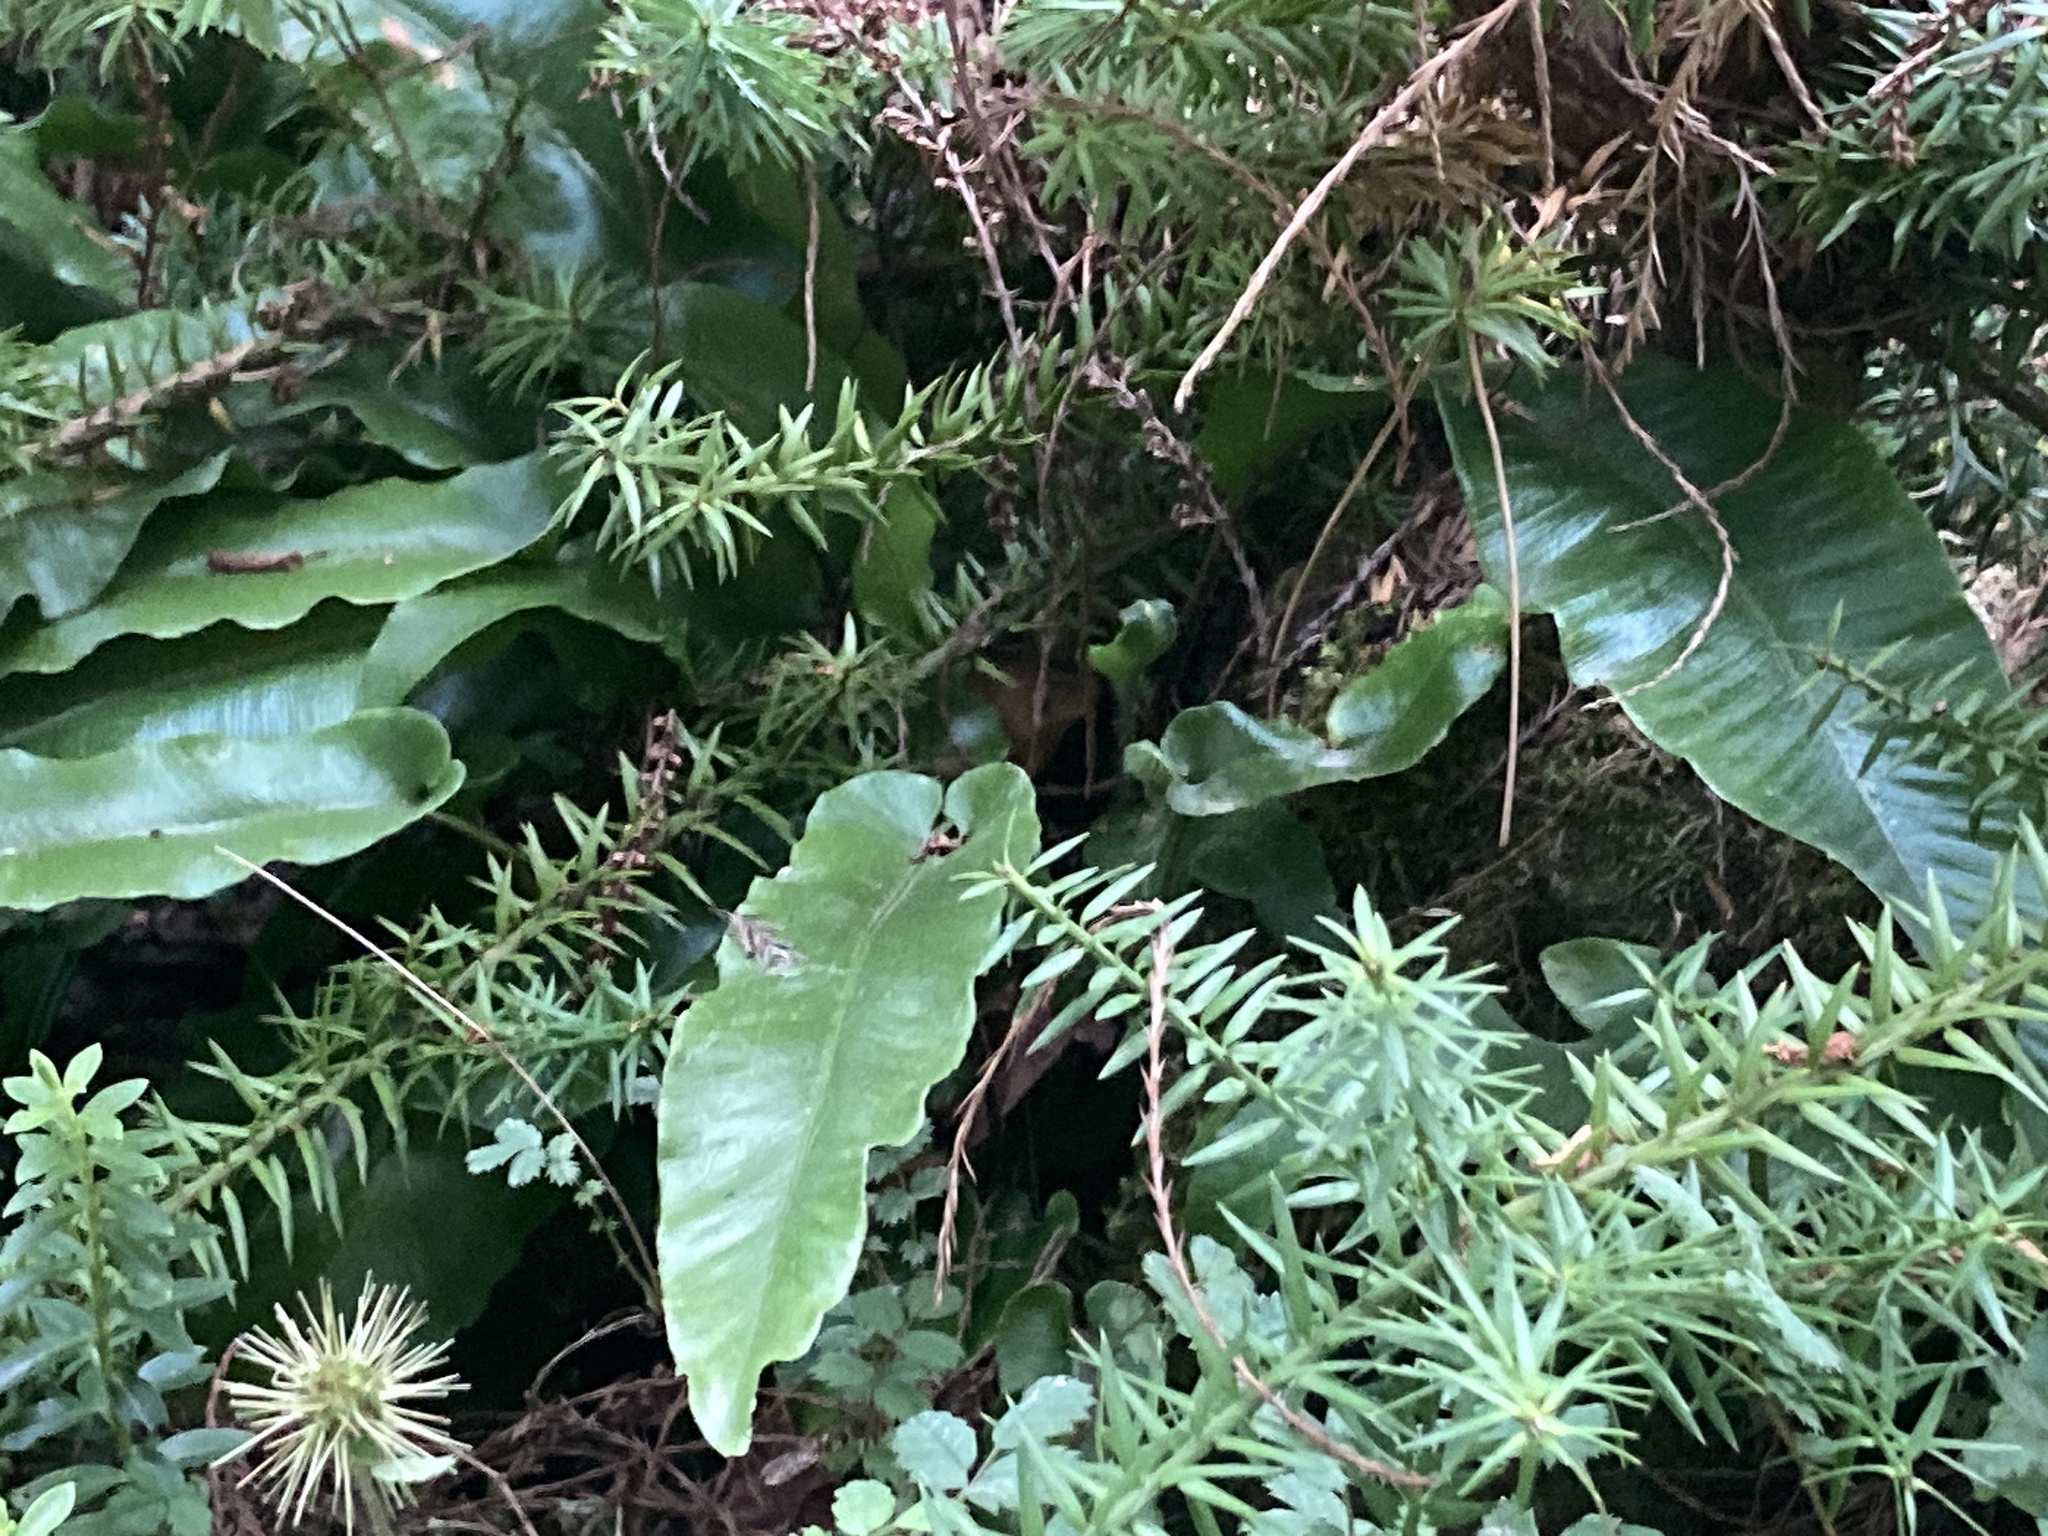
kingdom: Plantae
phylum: Tracheophyta
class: Polypodiopsida
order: Polypodiales
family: Aspleniaceae
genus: Asplenium
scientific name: Asplenium scolopendrium
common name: Hart's-tongue fern
